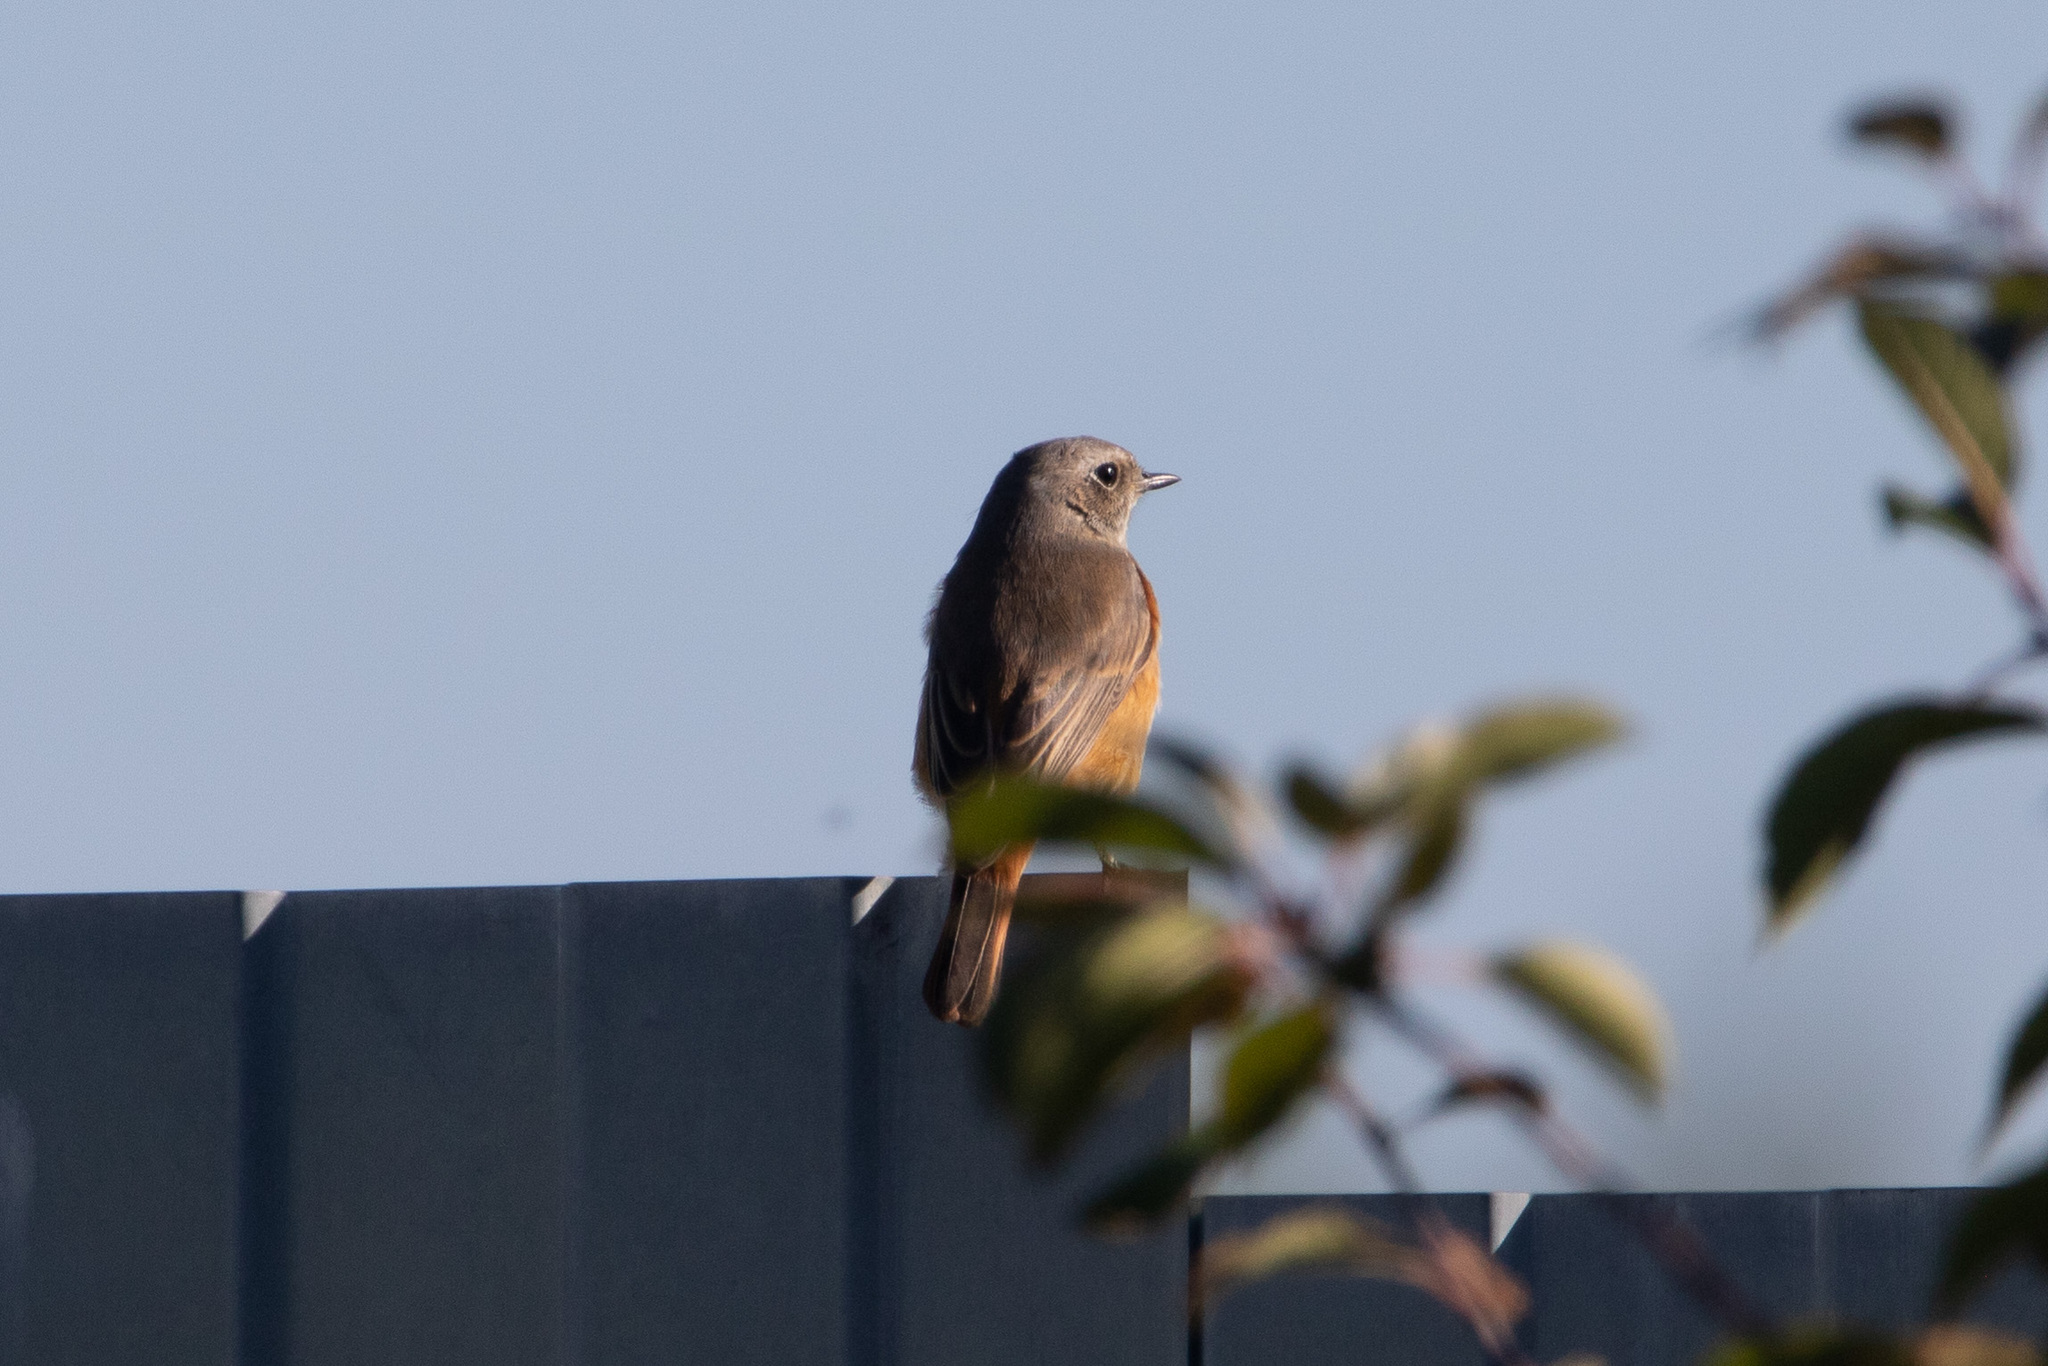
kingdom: Animalia
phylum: Chordata
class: Aves
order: Passeriformes
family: Muscicapidae
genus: Phoenicurus
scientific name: Phoenicurus phoenicurus
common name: Common redstart
